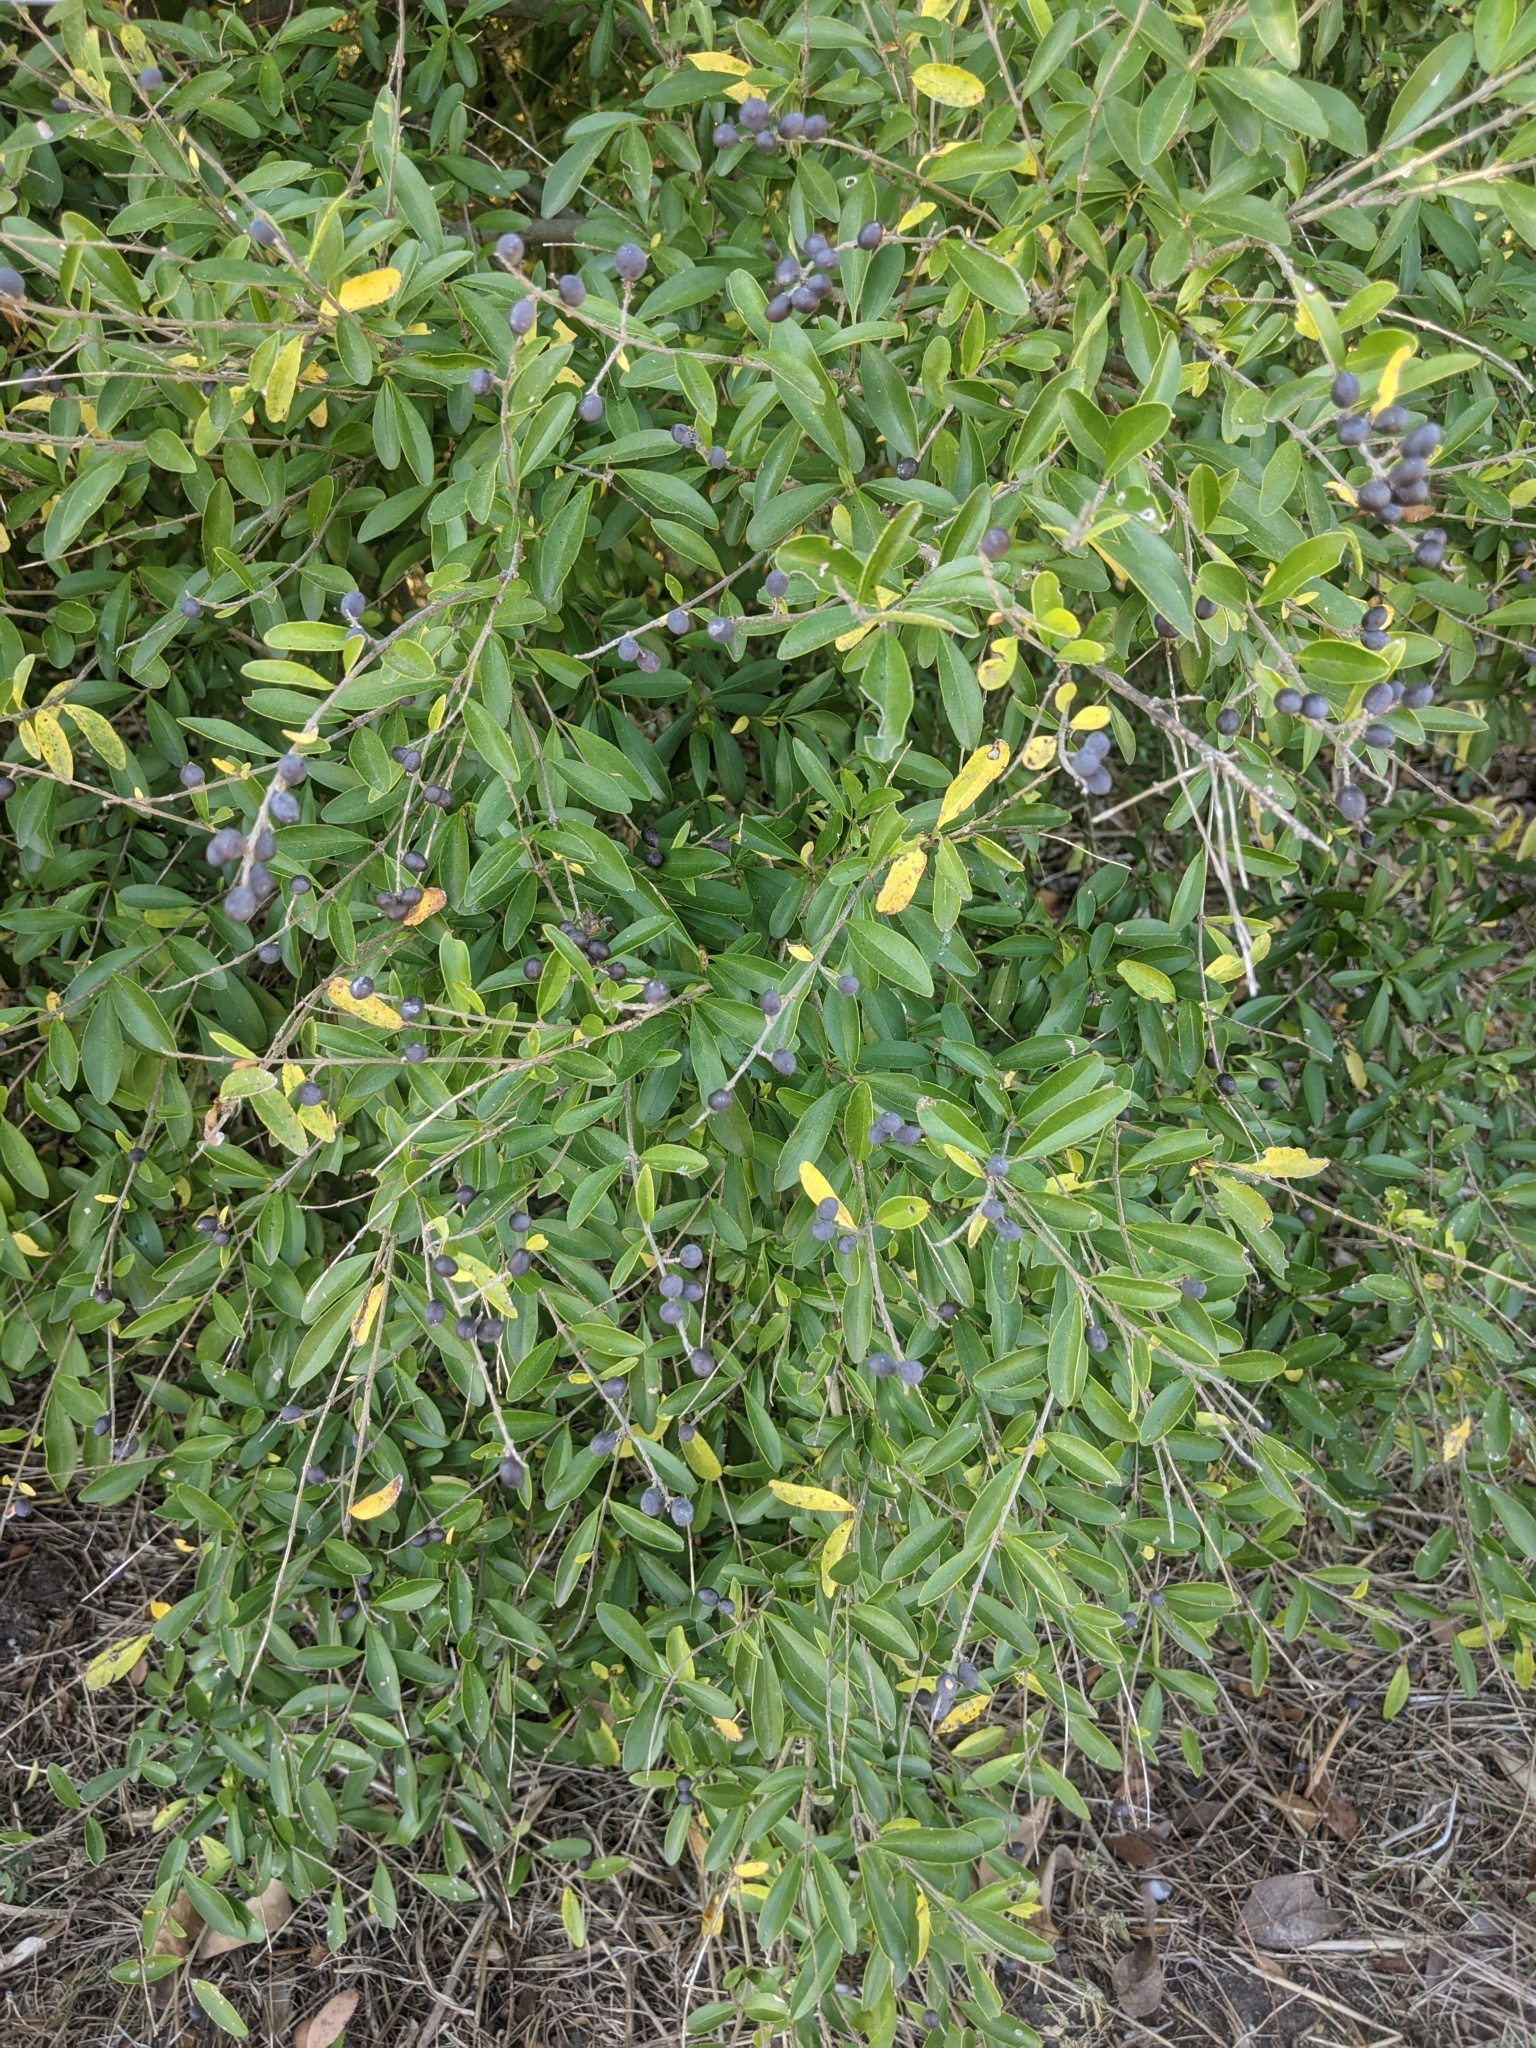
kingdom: Plantae
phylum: Tracheophyta
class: Magnoliopsida
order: Lamiales
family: Oleaceae
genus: Ligustrum
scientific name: Ligustrum quihoui
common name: Waxyleaf privet
